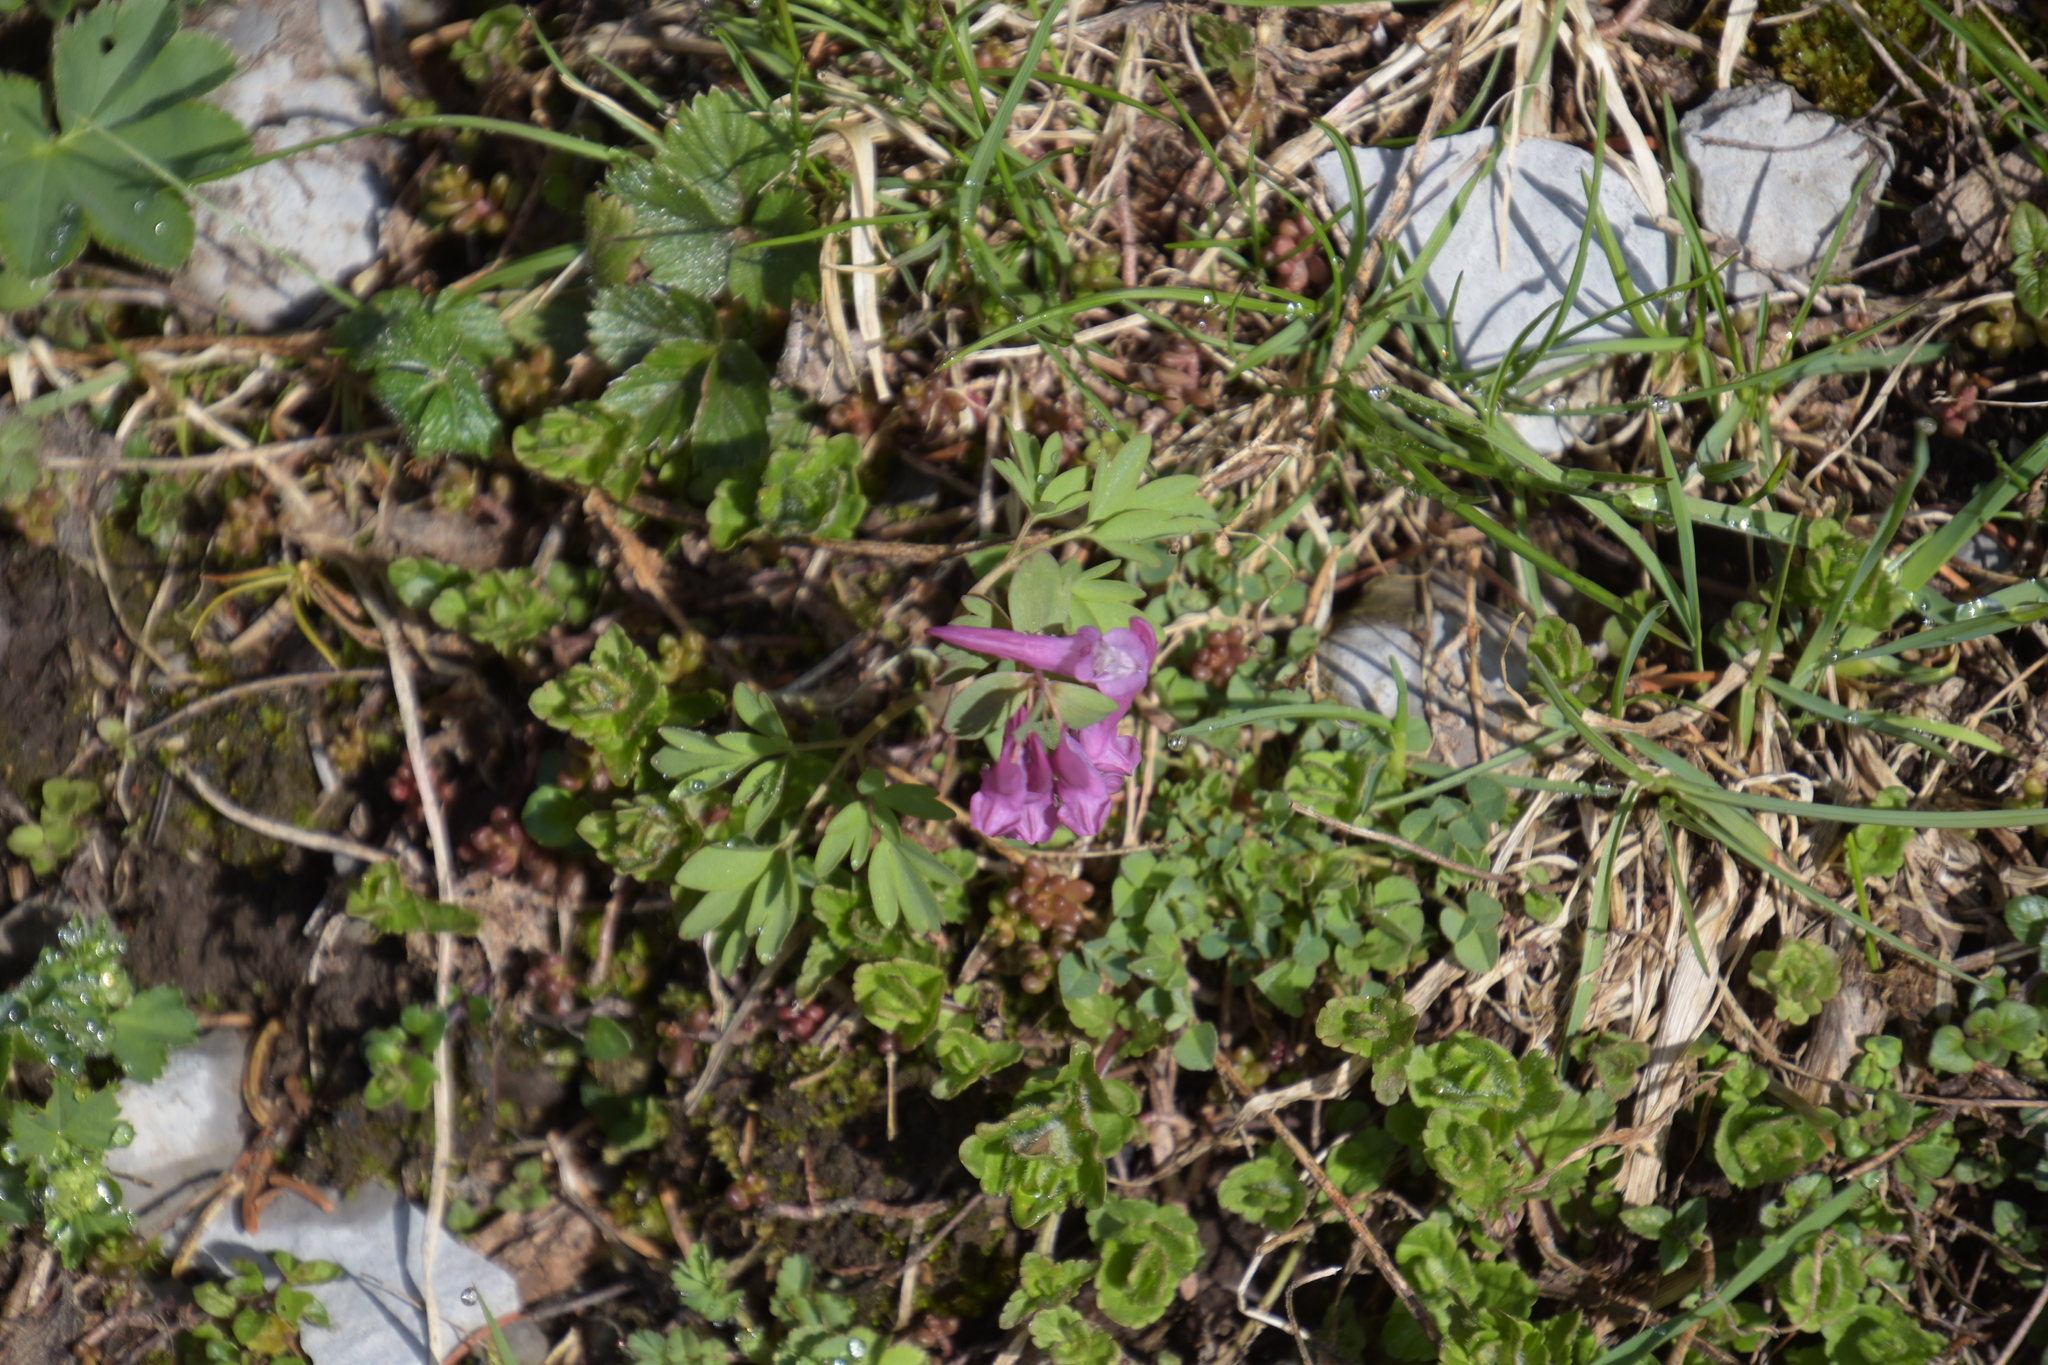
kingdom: Plantae
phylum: Tracheophyta
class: Magnoliopsida
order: Ranunculales
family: Papaveraceae
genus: Corydalis
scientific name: Corydalis solida
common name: Bird-in-a-bush
